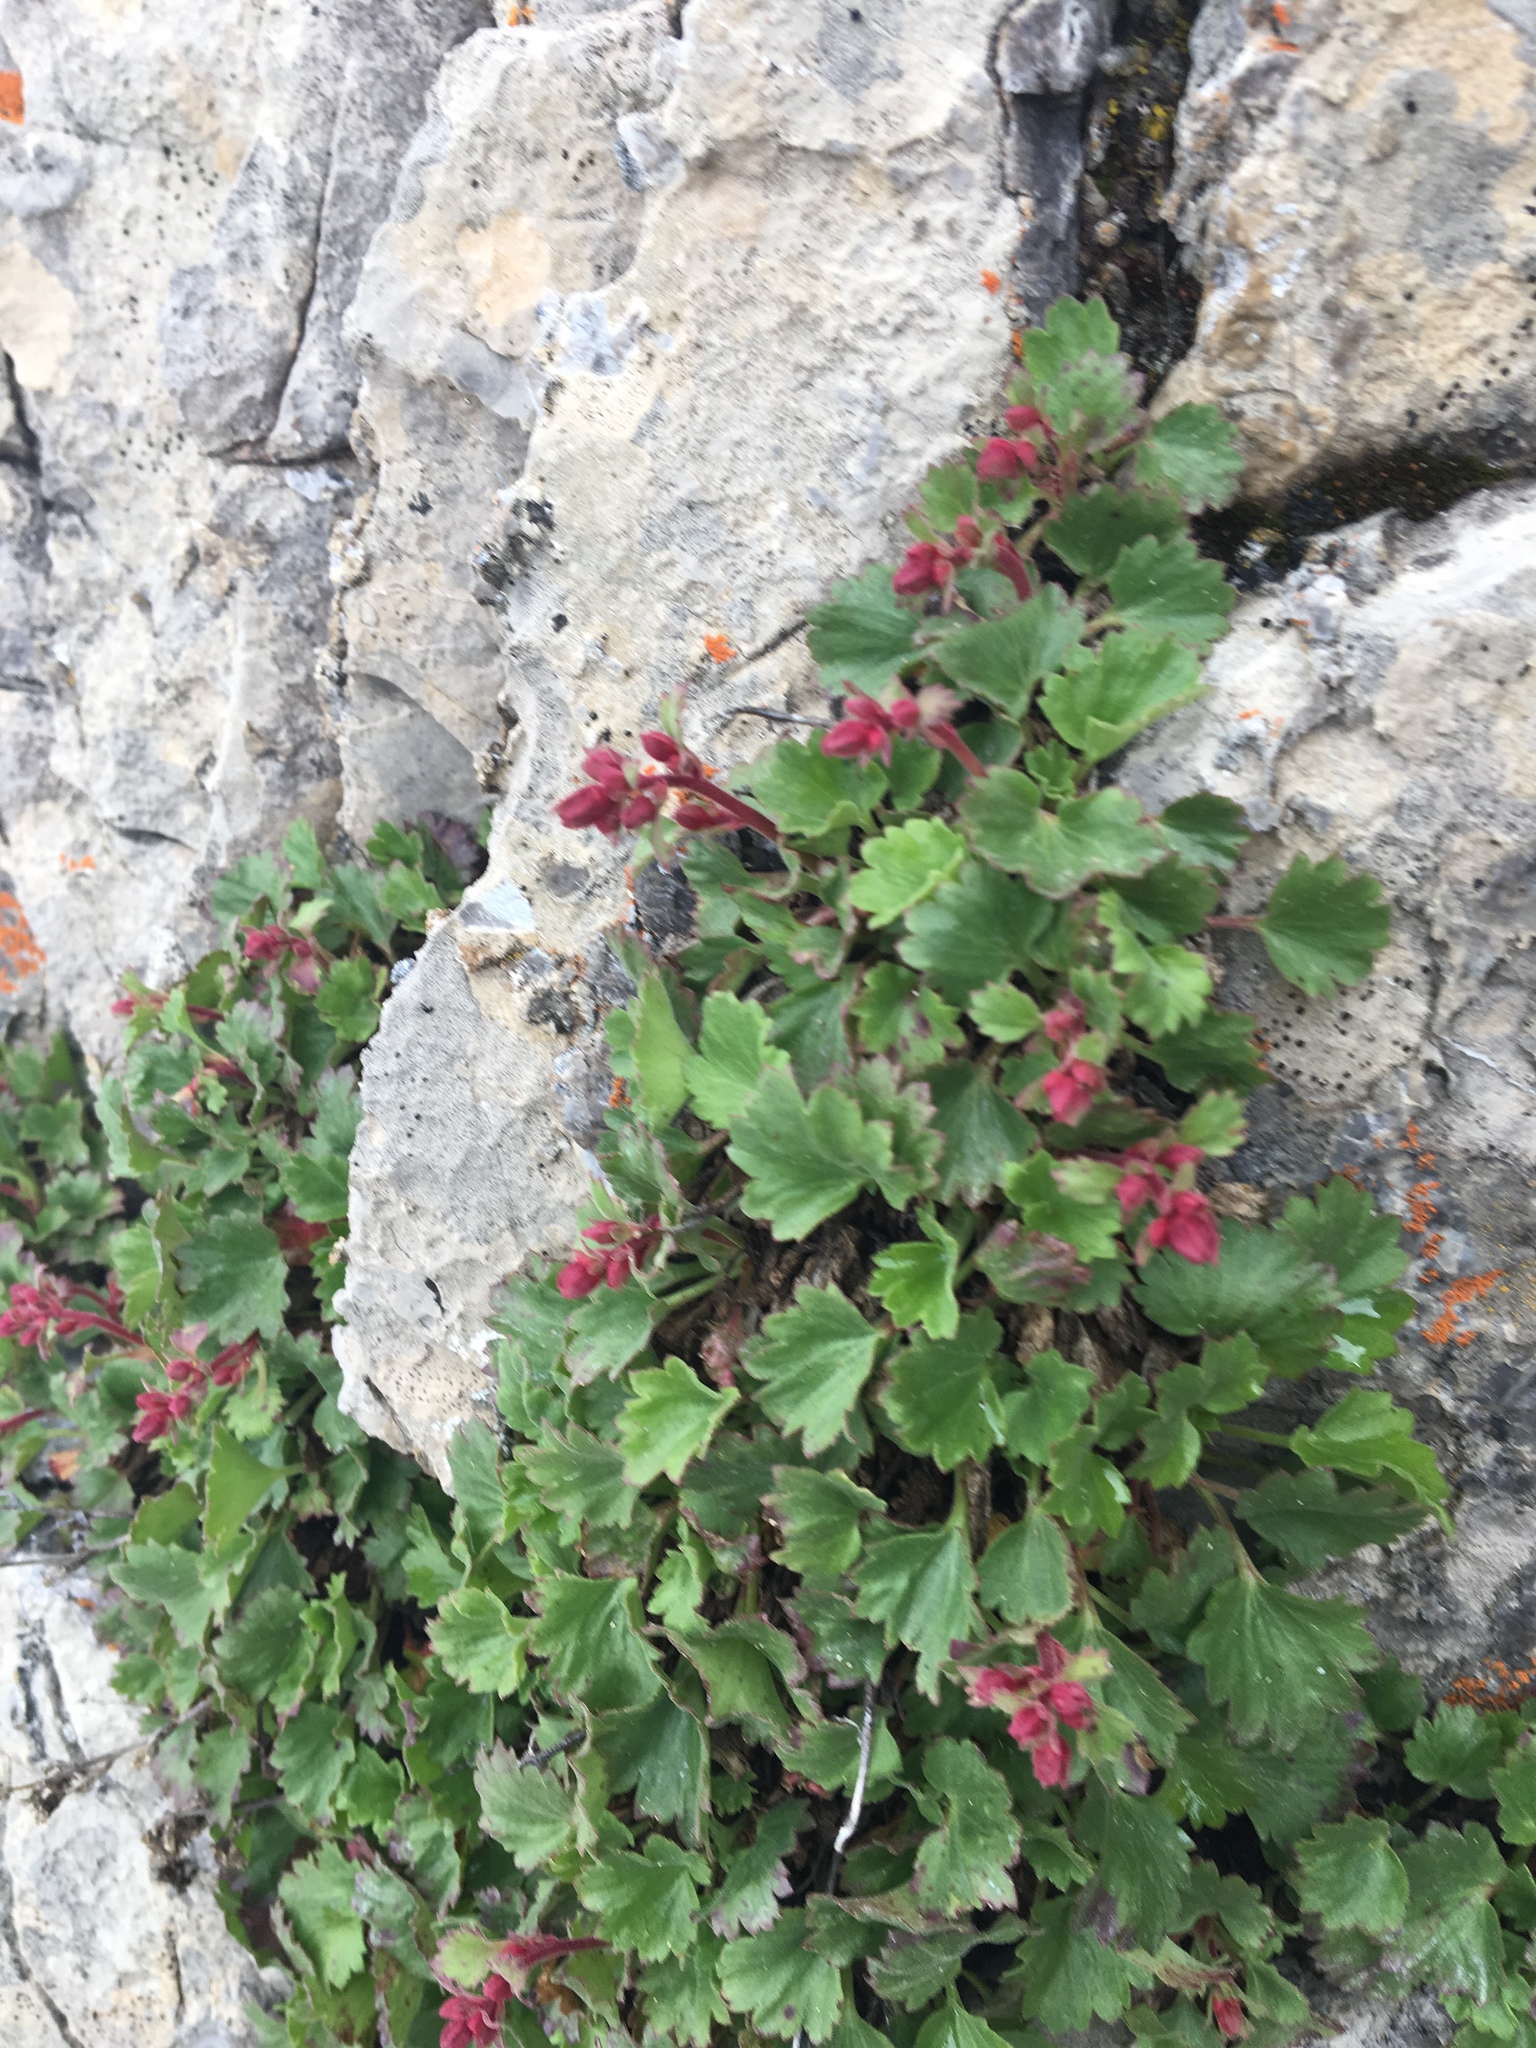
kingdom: Plantae
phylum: Tracheophyta
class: Magnoliopsida
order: Saxifragales
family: Saxifragaceae
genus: Telesonix
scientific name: Telesonix heucheriformis
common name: Alumroot brookfoam
